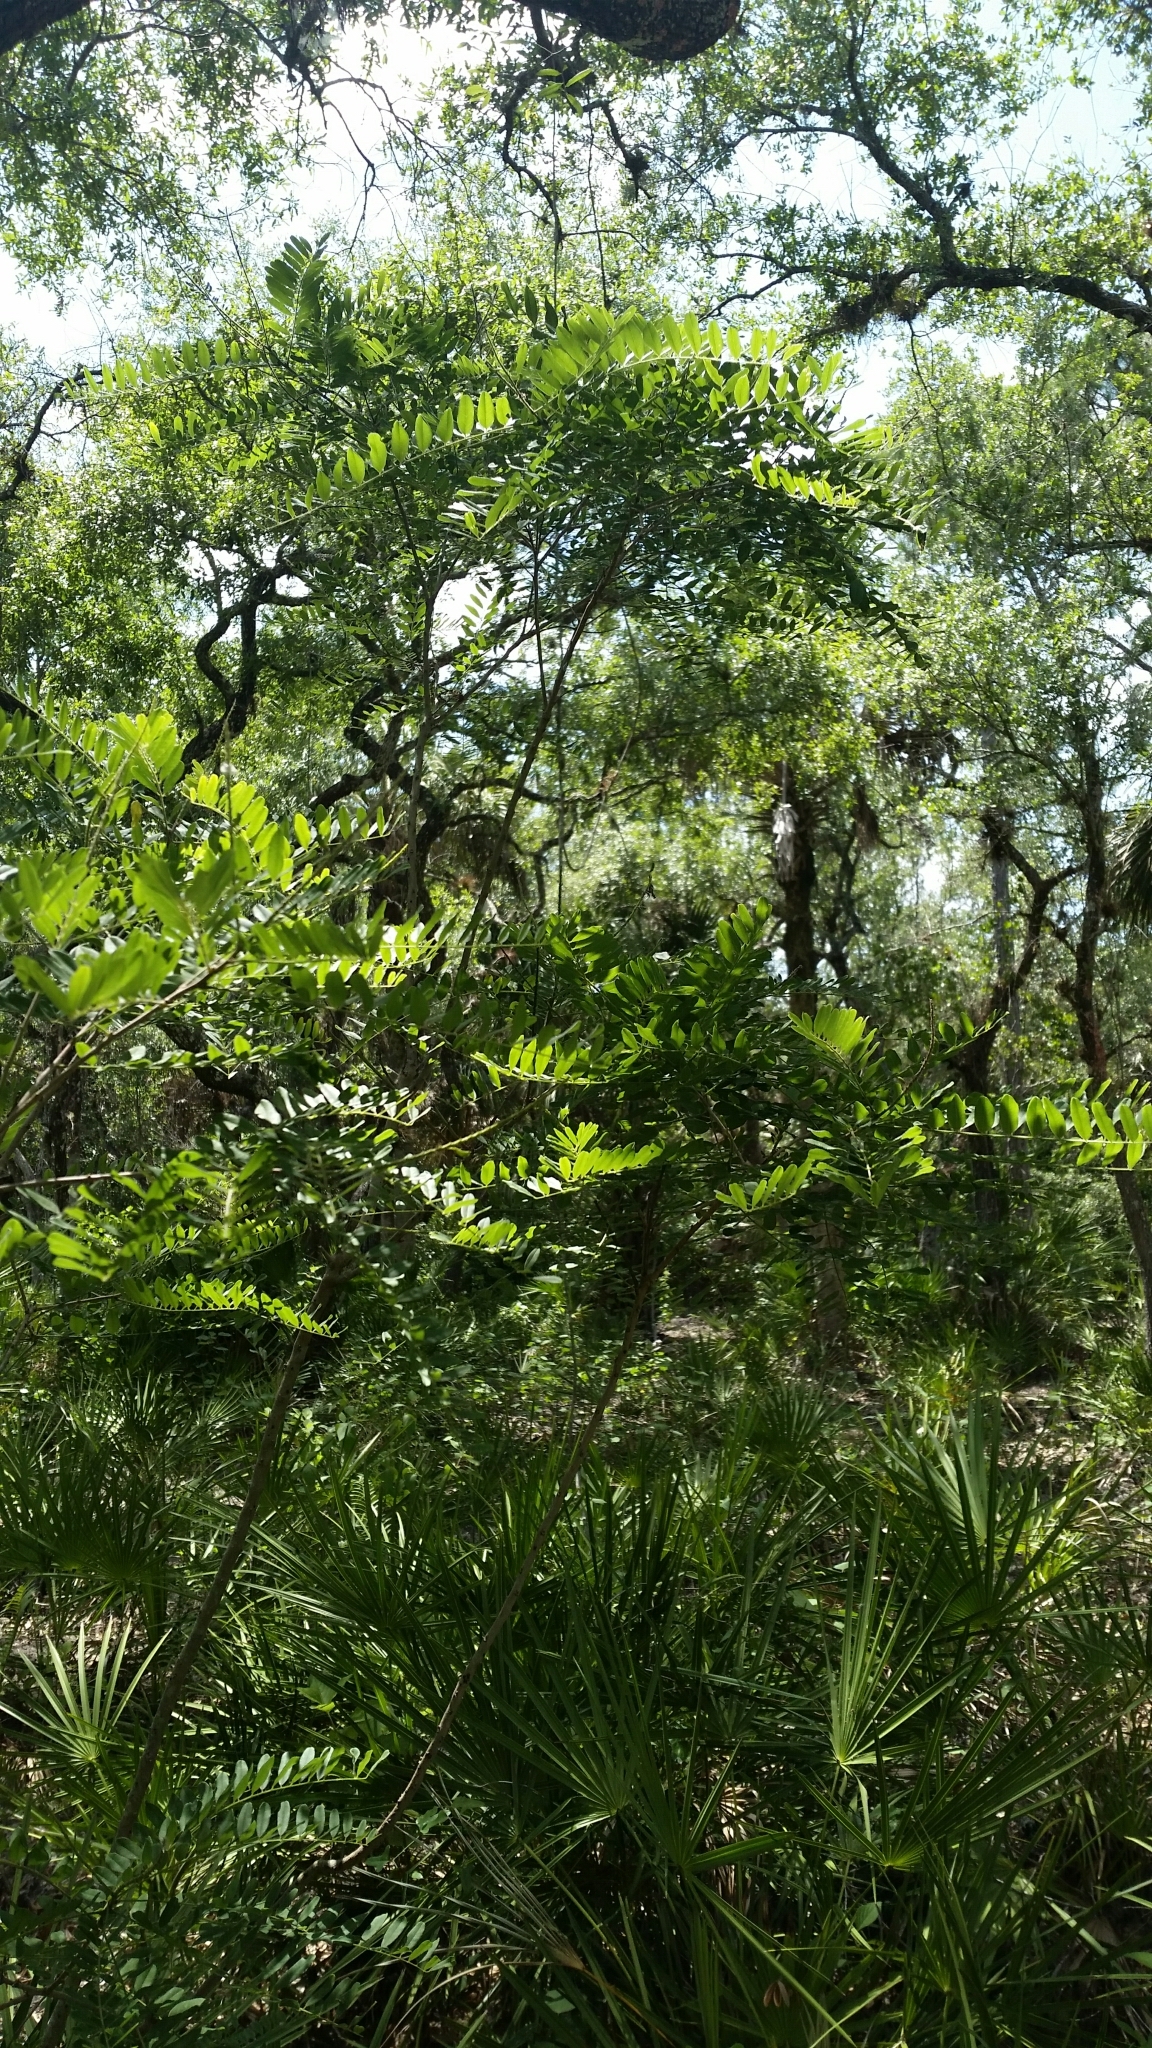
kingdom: Plantae
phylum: Tracheophyta
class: Magnoliopsida
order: Fabales
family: Fabaceae
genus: Amorpha
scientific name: Amorpha fruticosa
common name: False indigo
